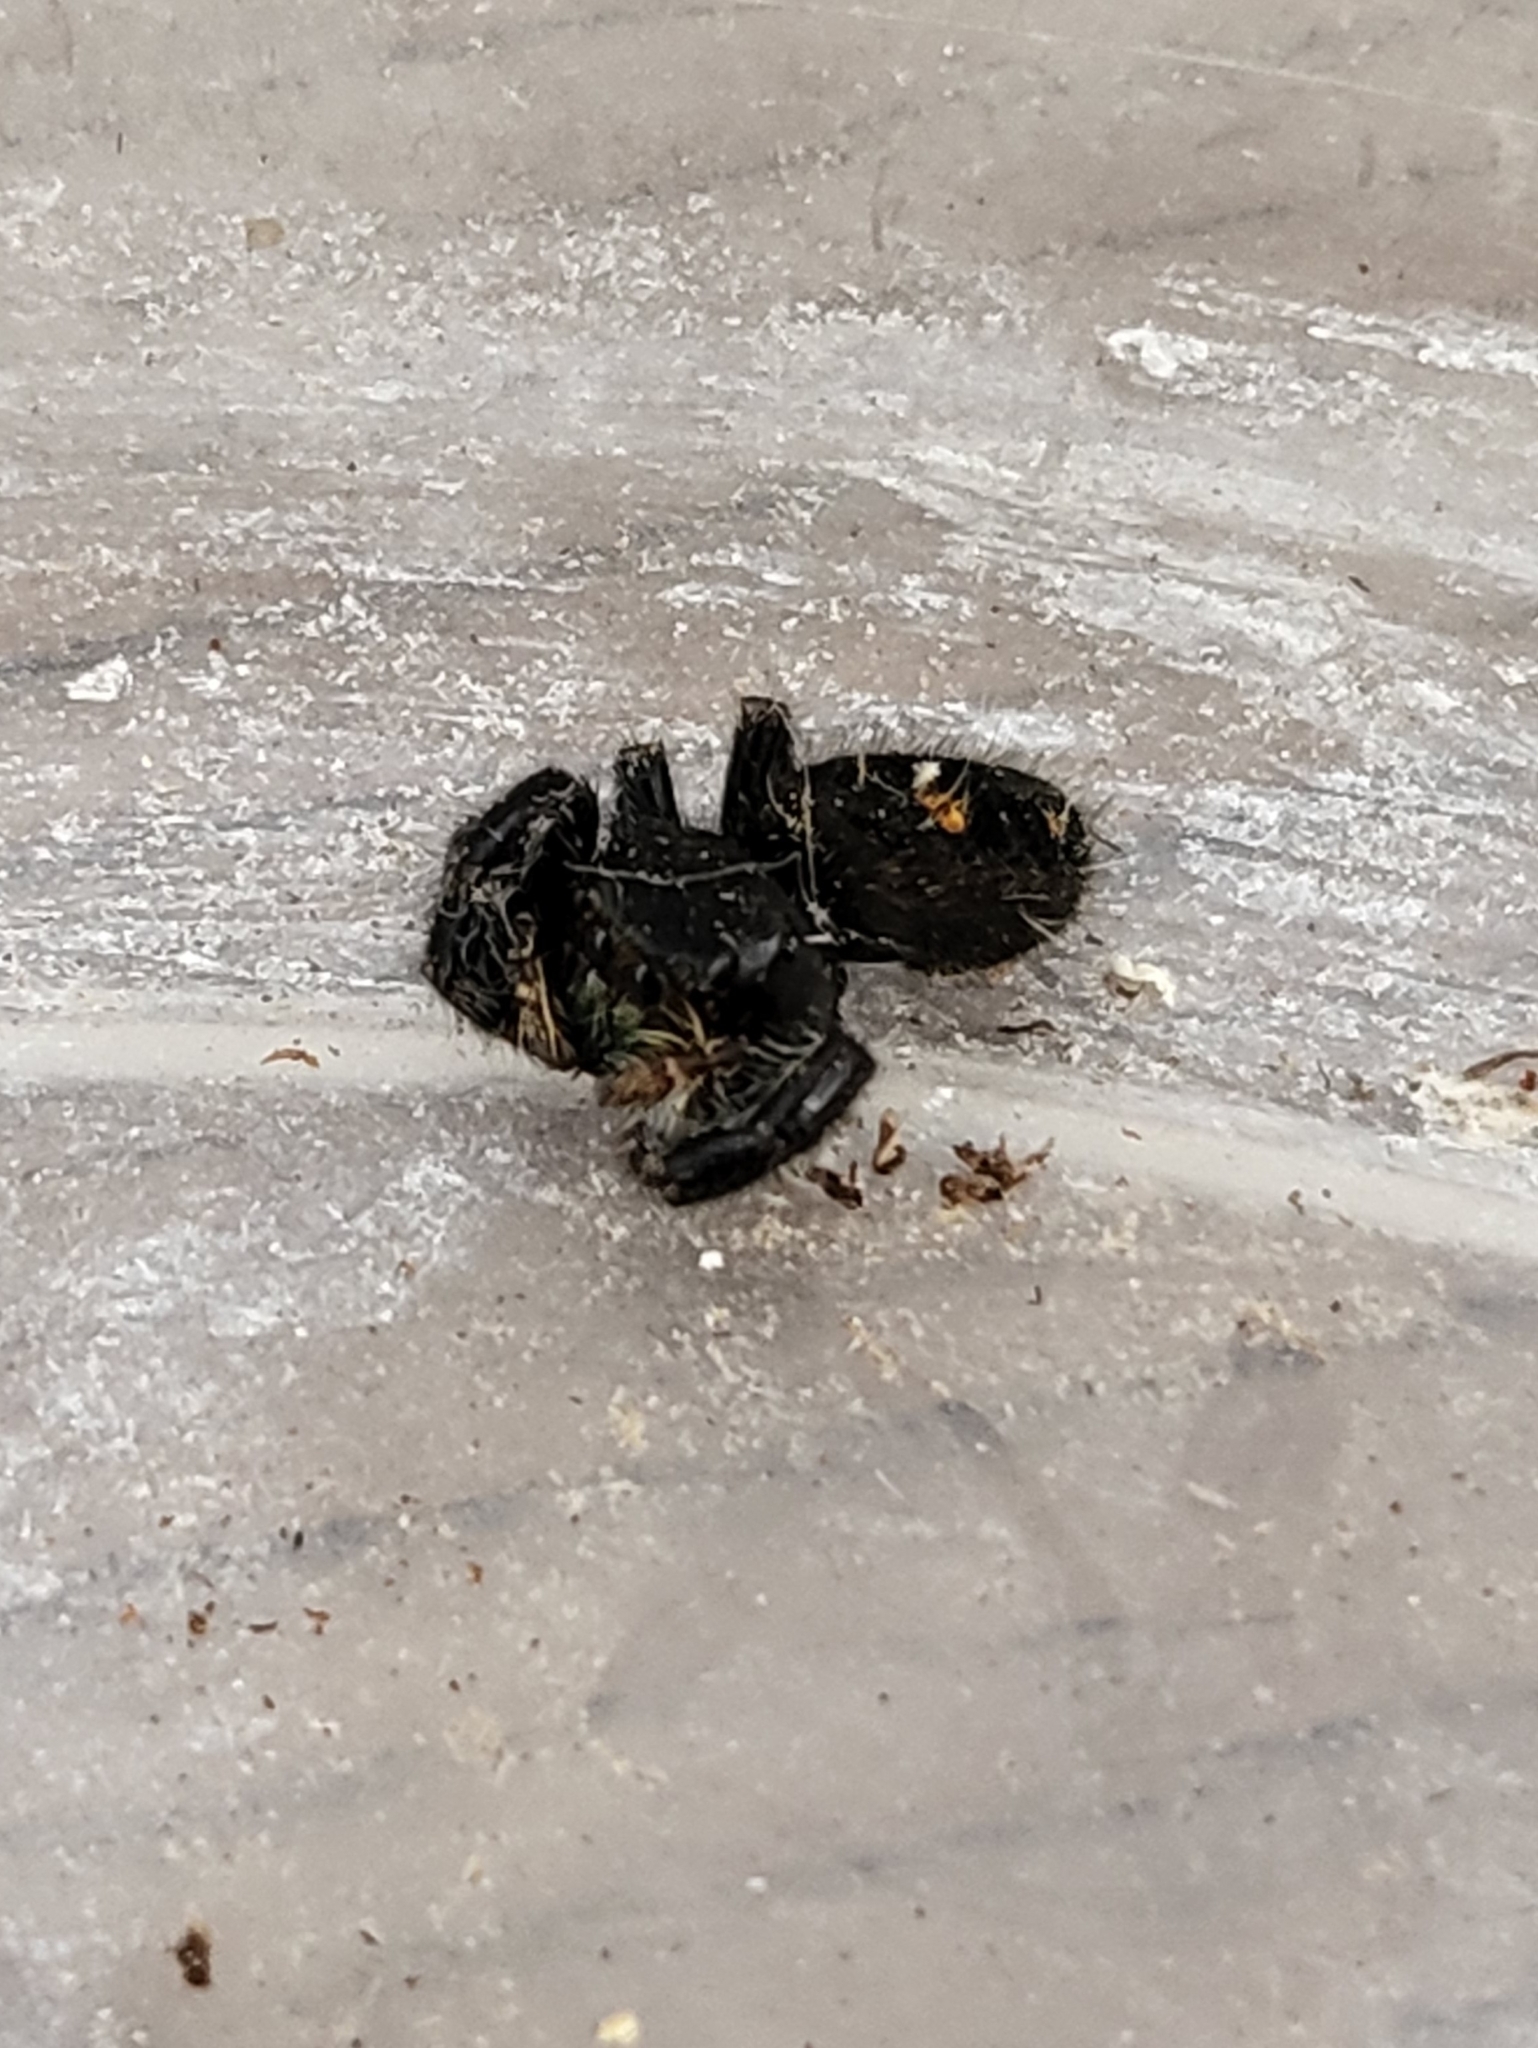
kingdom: Animalia
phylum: Arthropoda
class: Arachnida
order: Araneae
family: Salticidae
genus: Phidippus
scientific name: Phidippus audax
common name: Bold jumper
